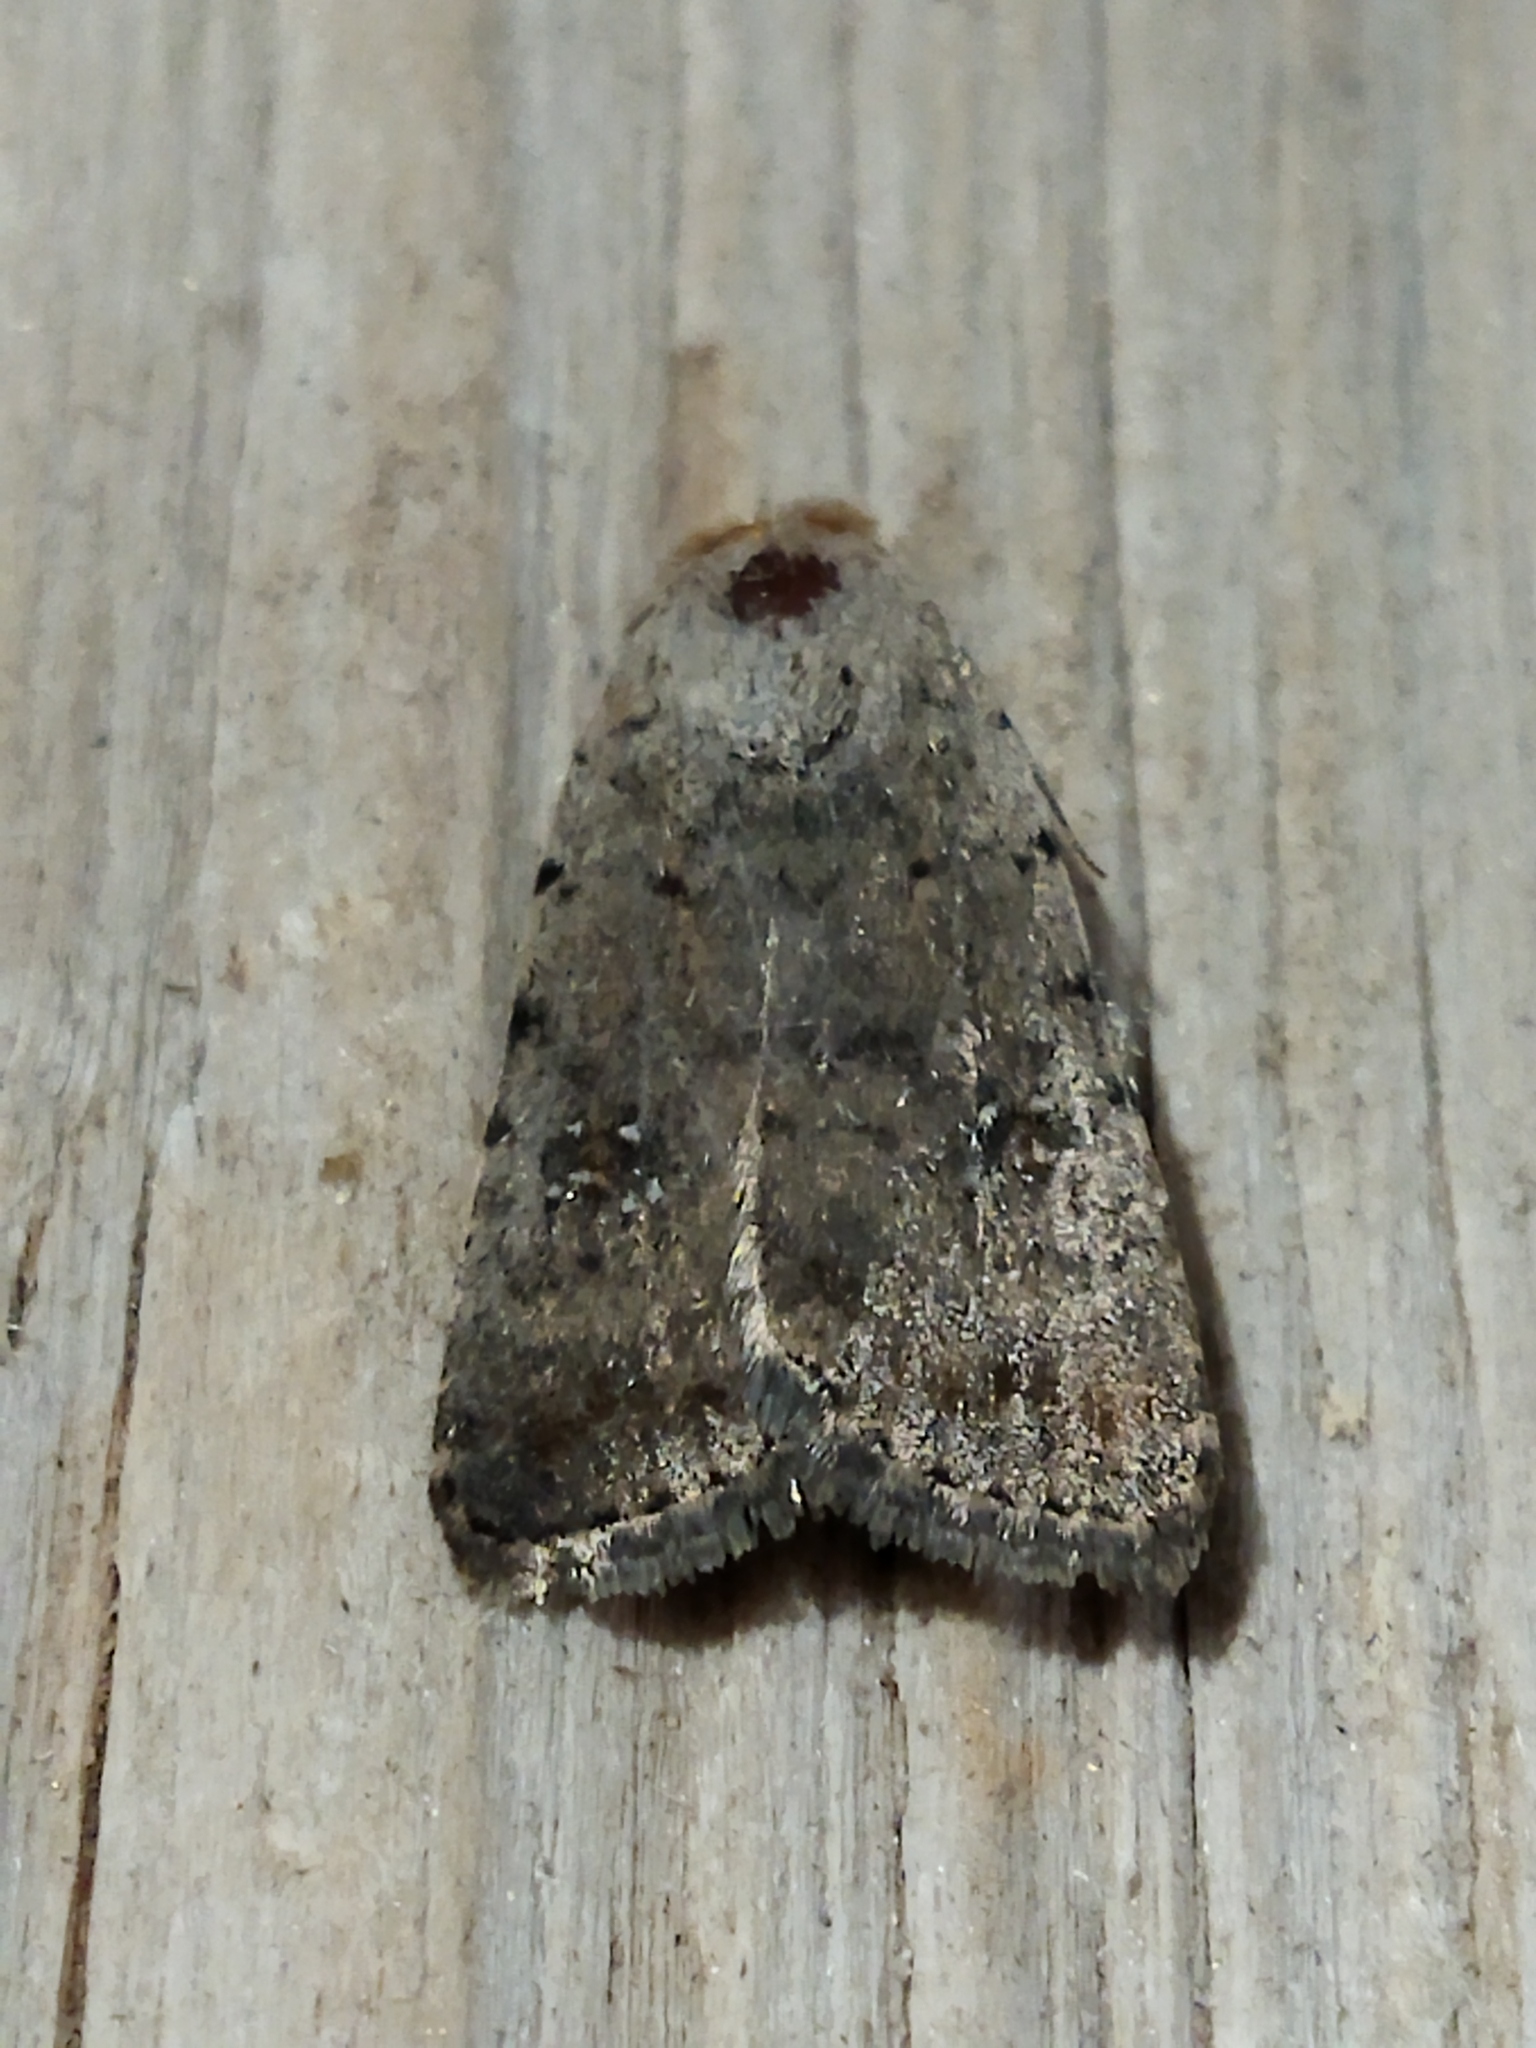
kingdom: Animalia
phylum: Arthropoda
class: Insecta
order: Lepidoptera
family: Noctuidae
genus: Caradrina
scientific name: Caradrina clavipalpis
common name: Pale mottled willow
